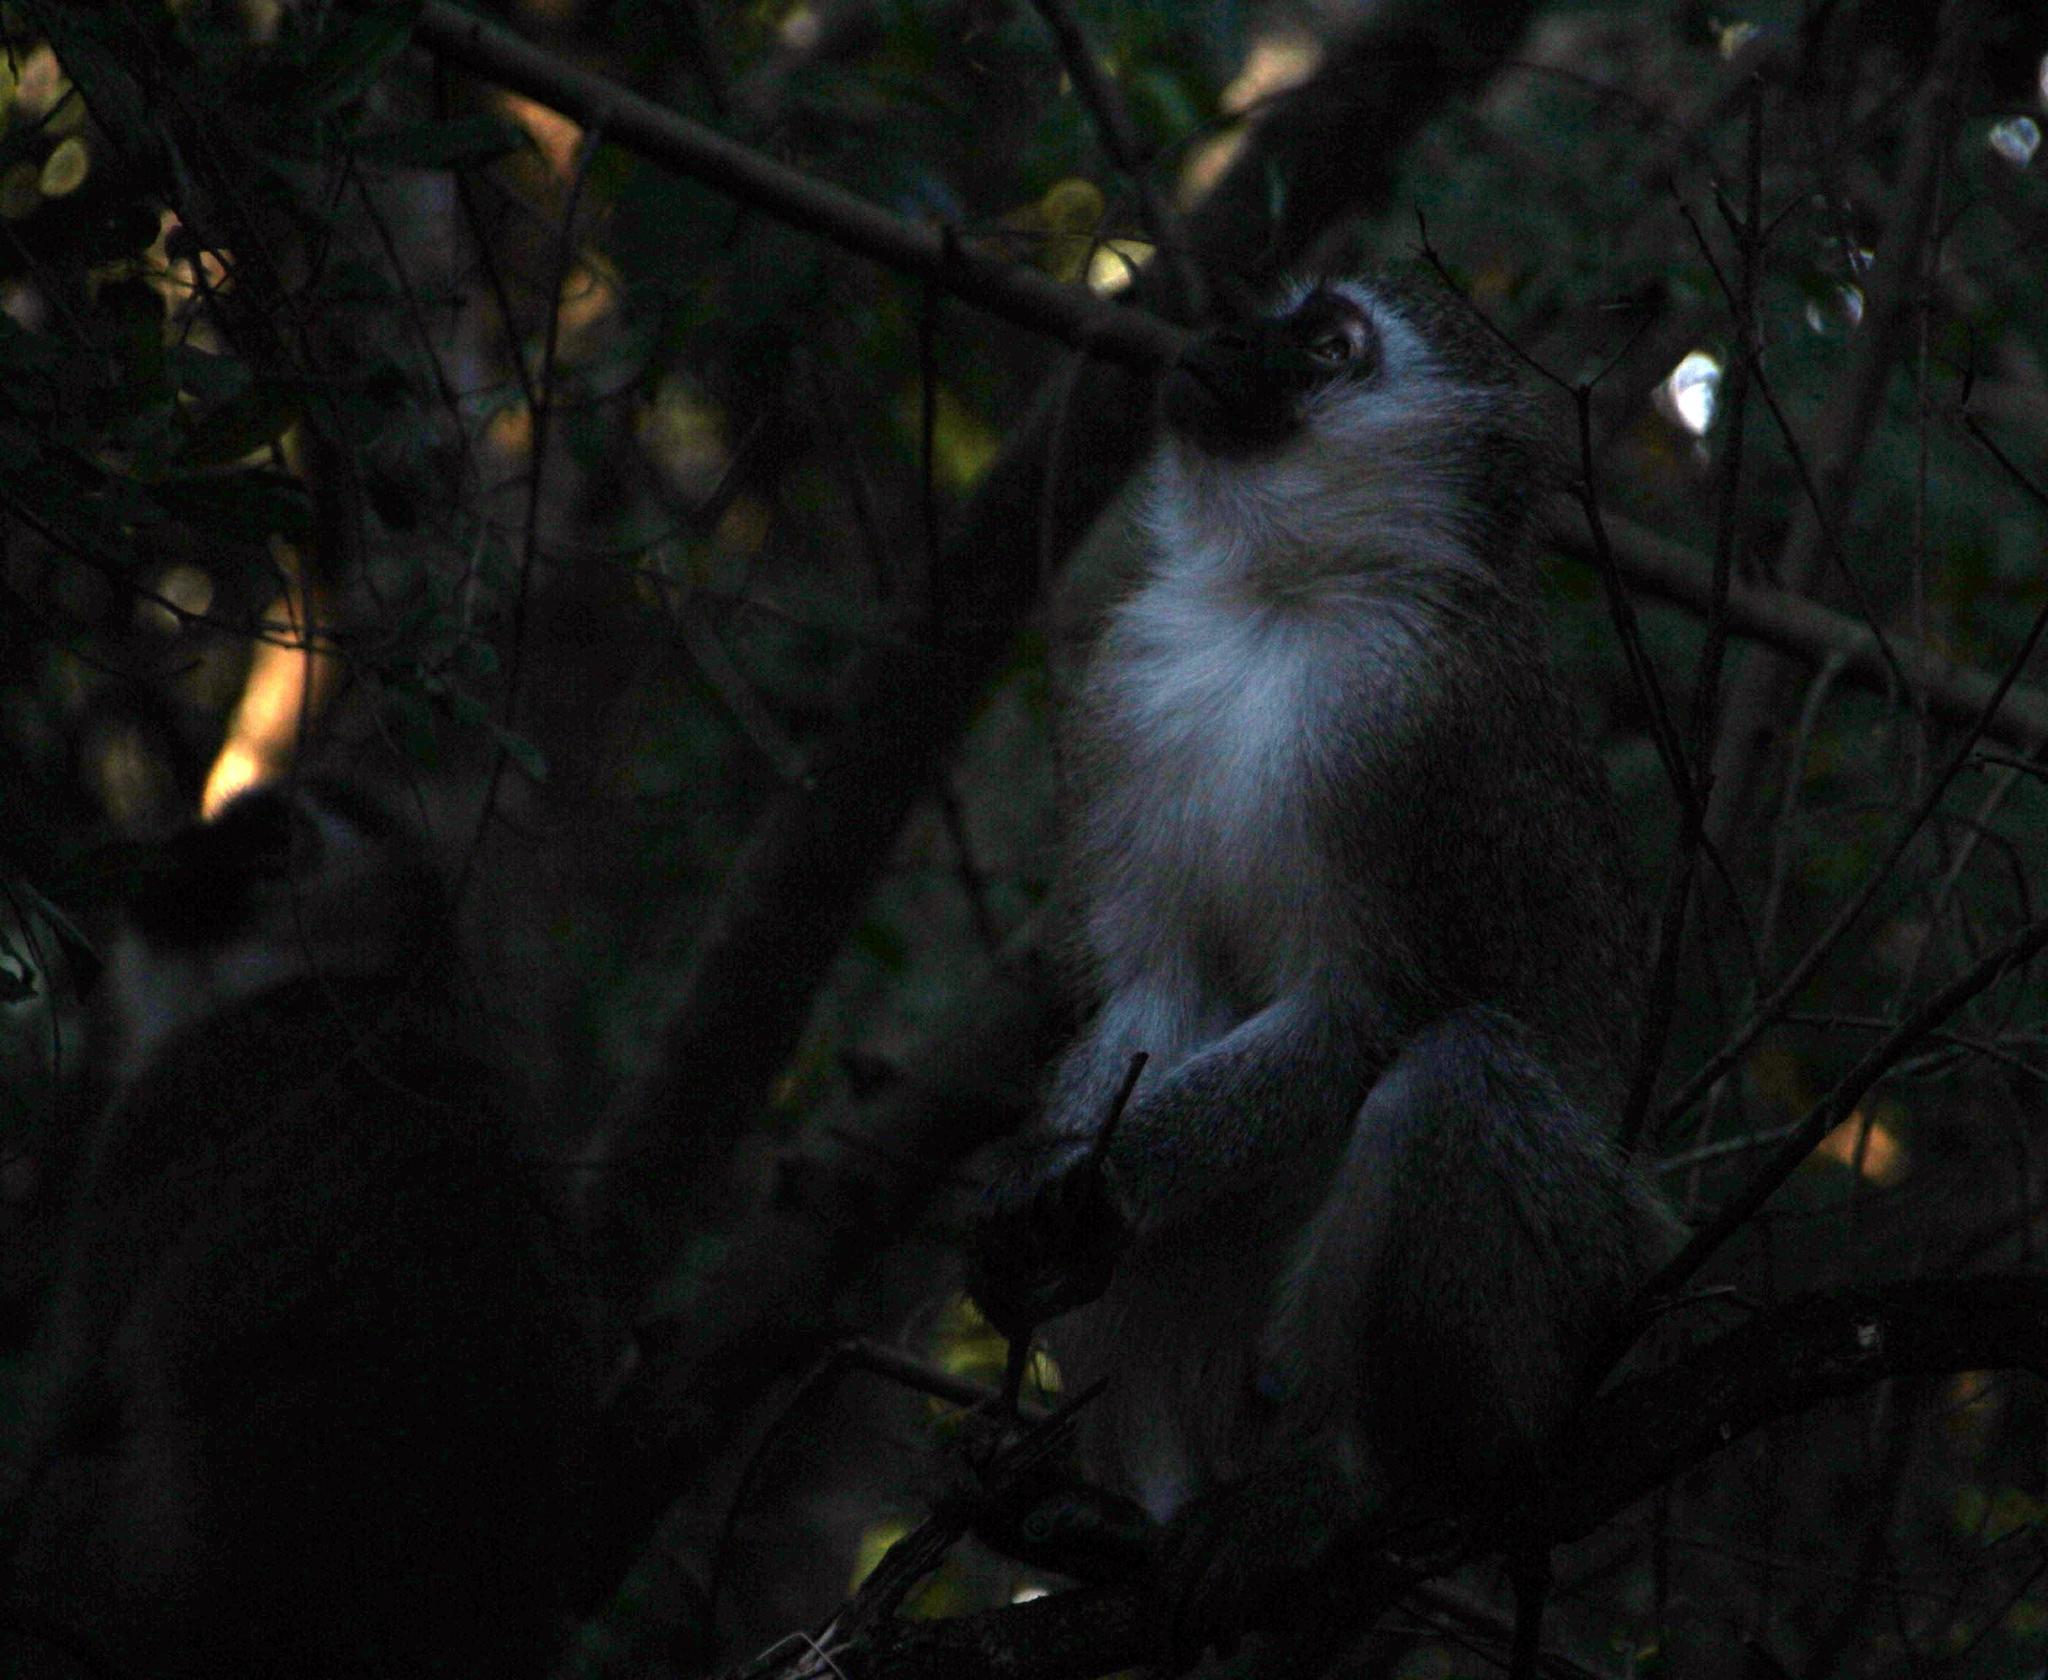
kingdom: Animalia
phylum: Chordata
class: Mammalia
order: Primates
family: Cercopithecidae
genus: Chlorocebus
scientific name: Chlorocebus pygerythrus
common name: Vervet monkey
